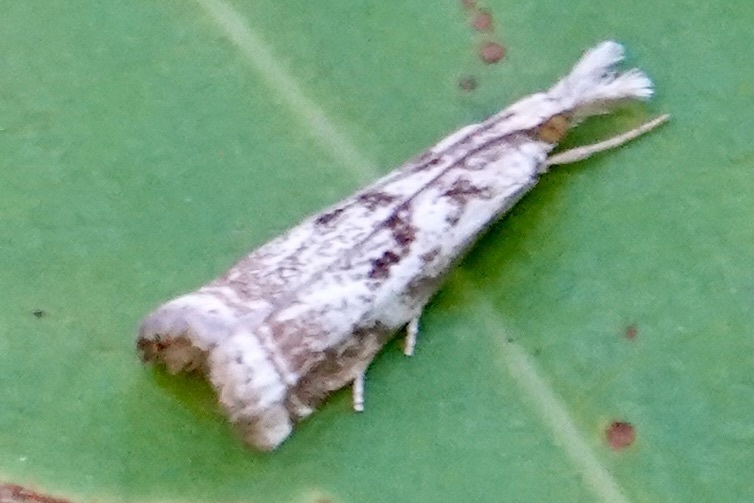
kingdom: Animalia
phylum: Arthropoda
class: Insecta
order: Lepidoptera
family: Crambidae
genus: Microcrambus
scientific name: Microcrambus elegans
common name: Elegant grass-veneer
